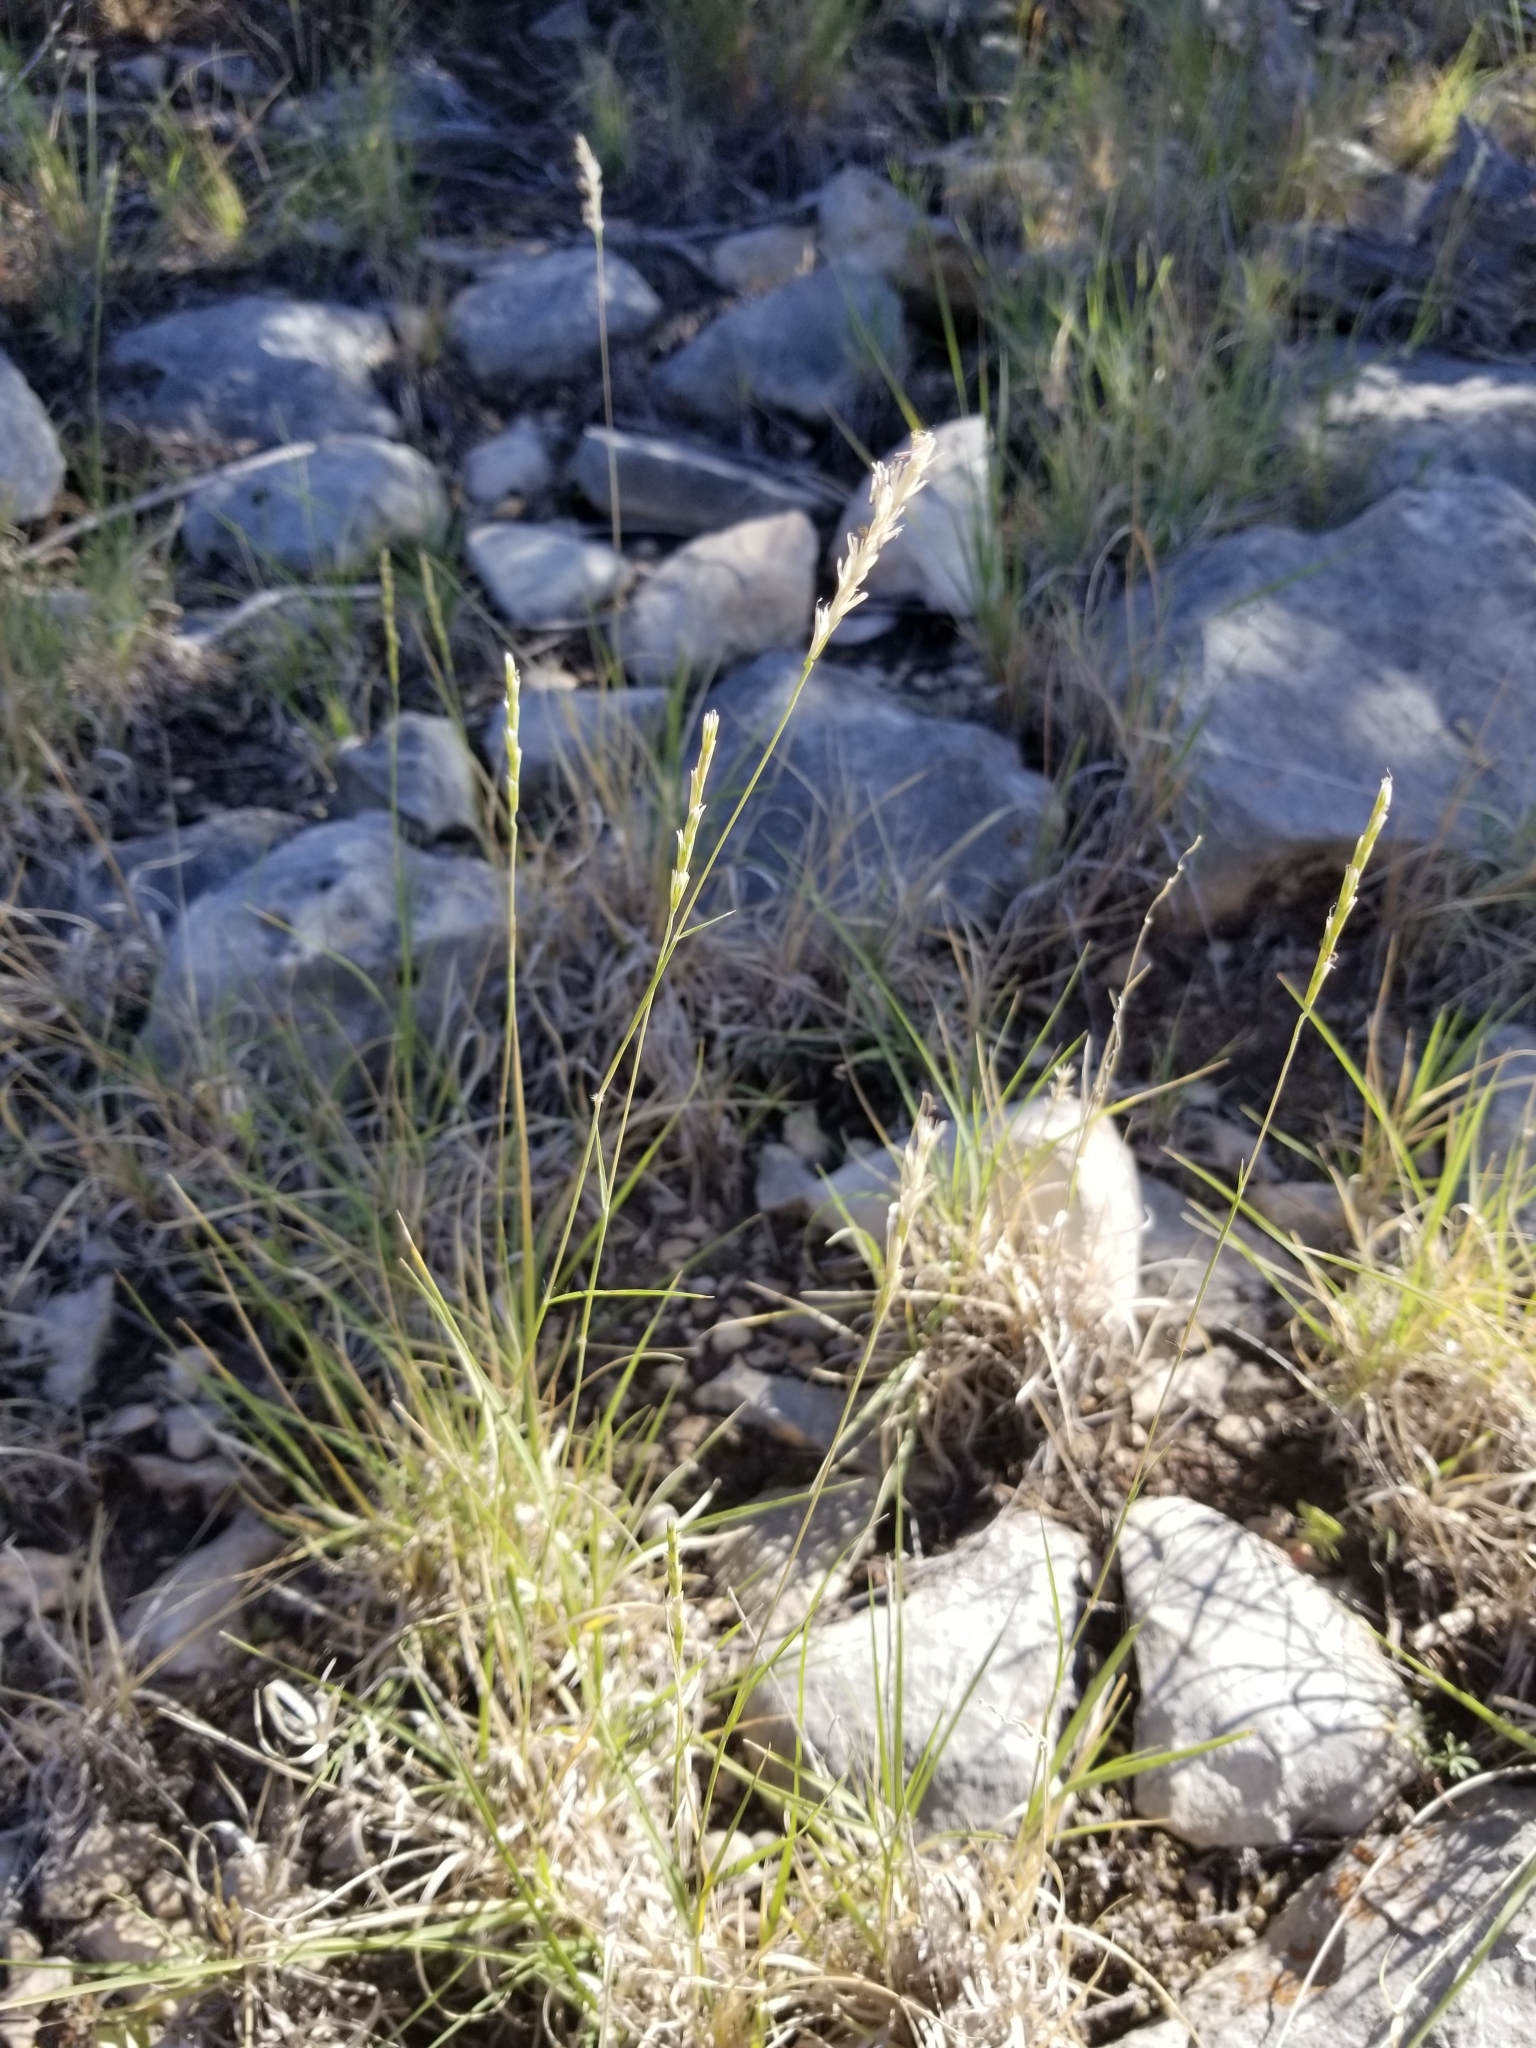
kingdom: Plantae
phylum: Tracheophyta
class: Liliopsida
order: Poales
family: Poaceae
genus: Hilaria
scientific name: Hilaria belangeri
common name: Curly-mesquite
